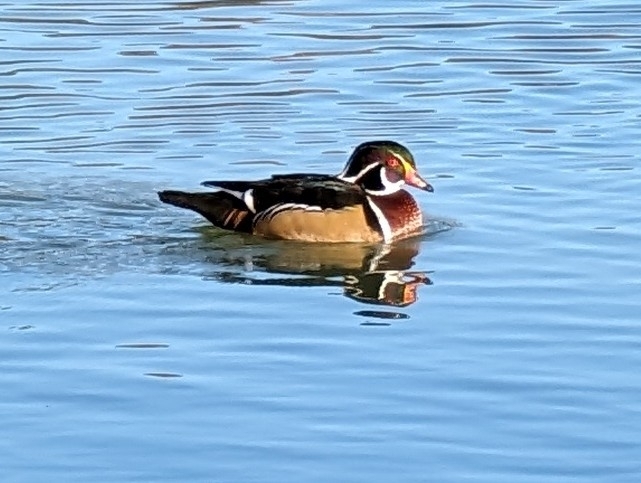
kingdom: Animalia
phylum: Chordata
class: Aves
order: Anseriformes
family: Anatidae
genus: Aix
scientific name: Aix sponsa
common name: Wood duck
